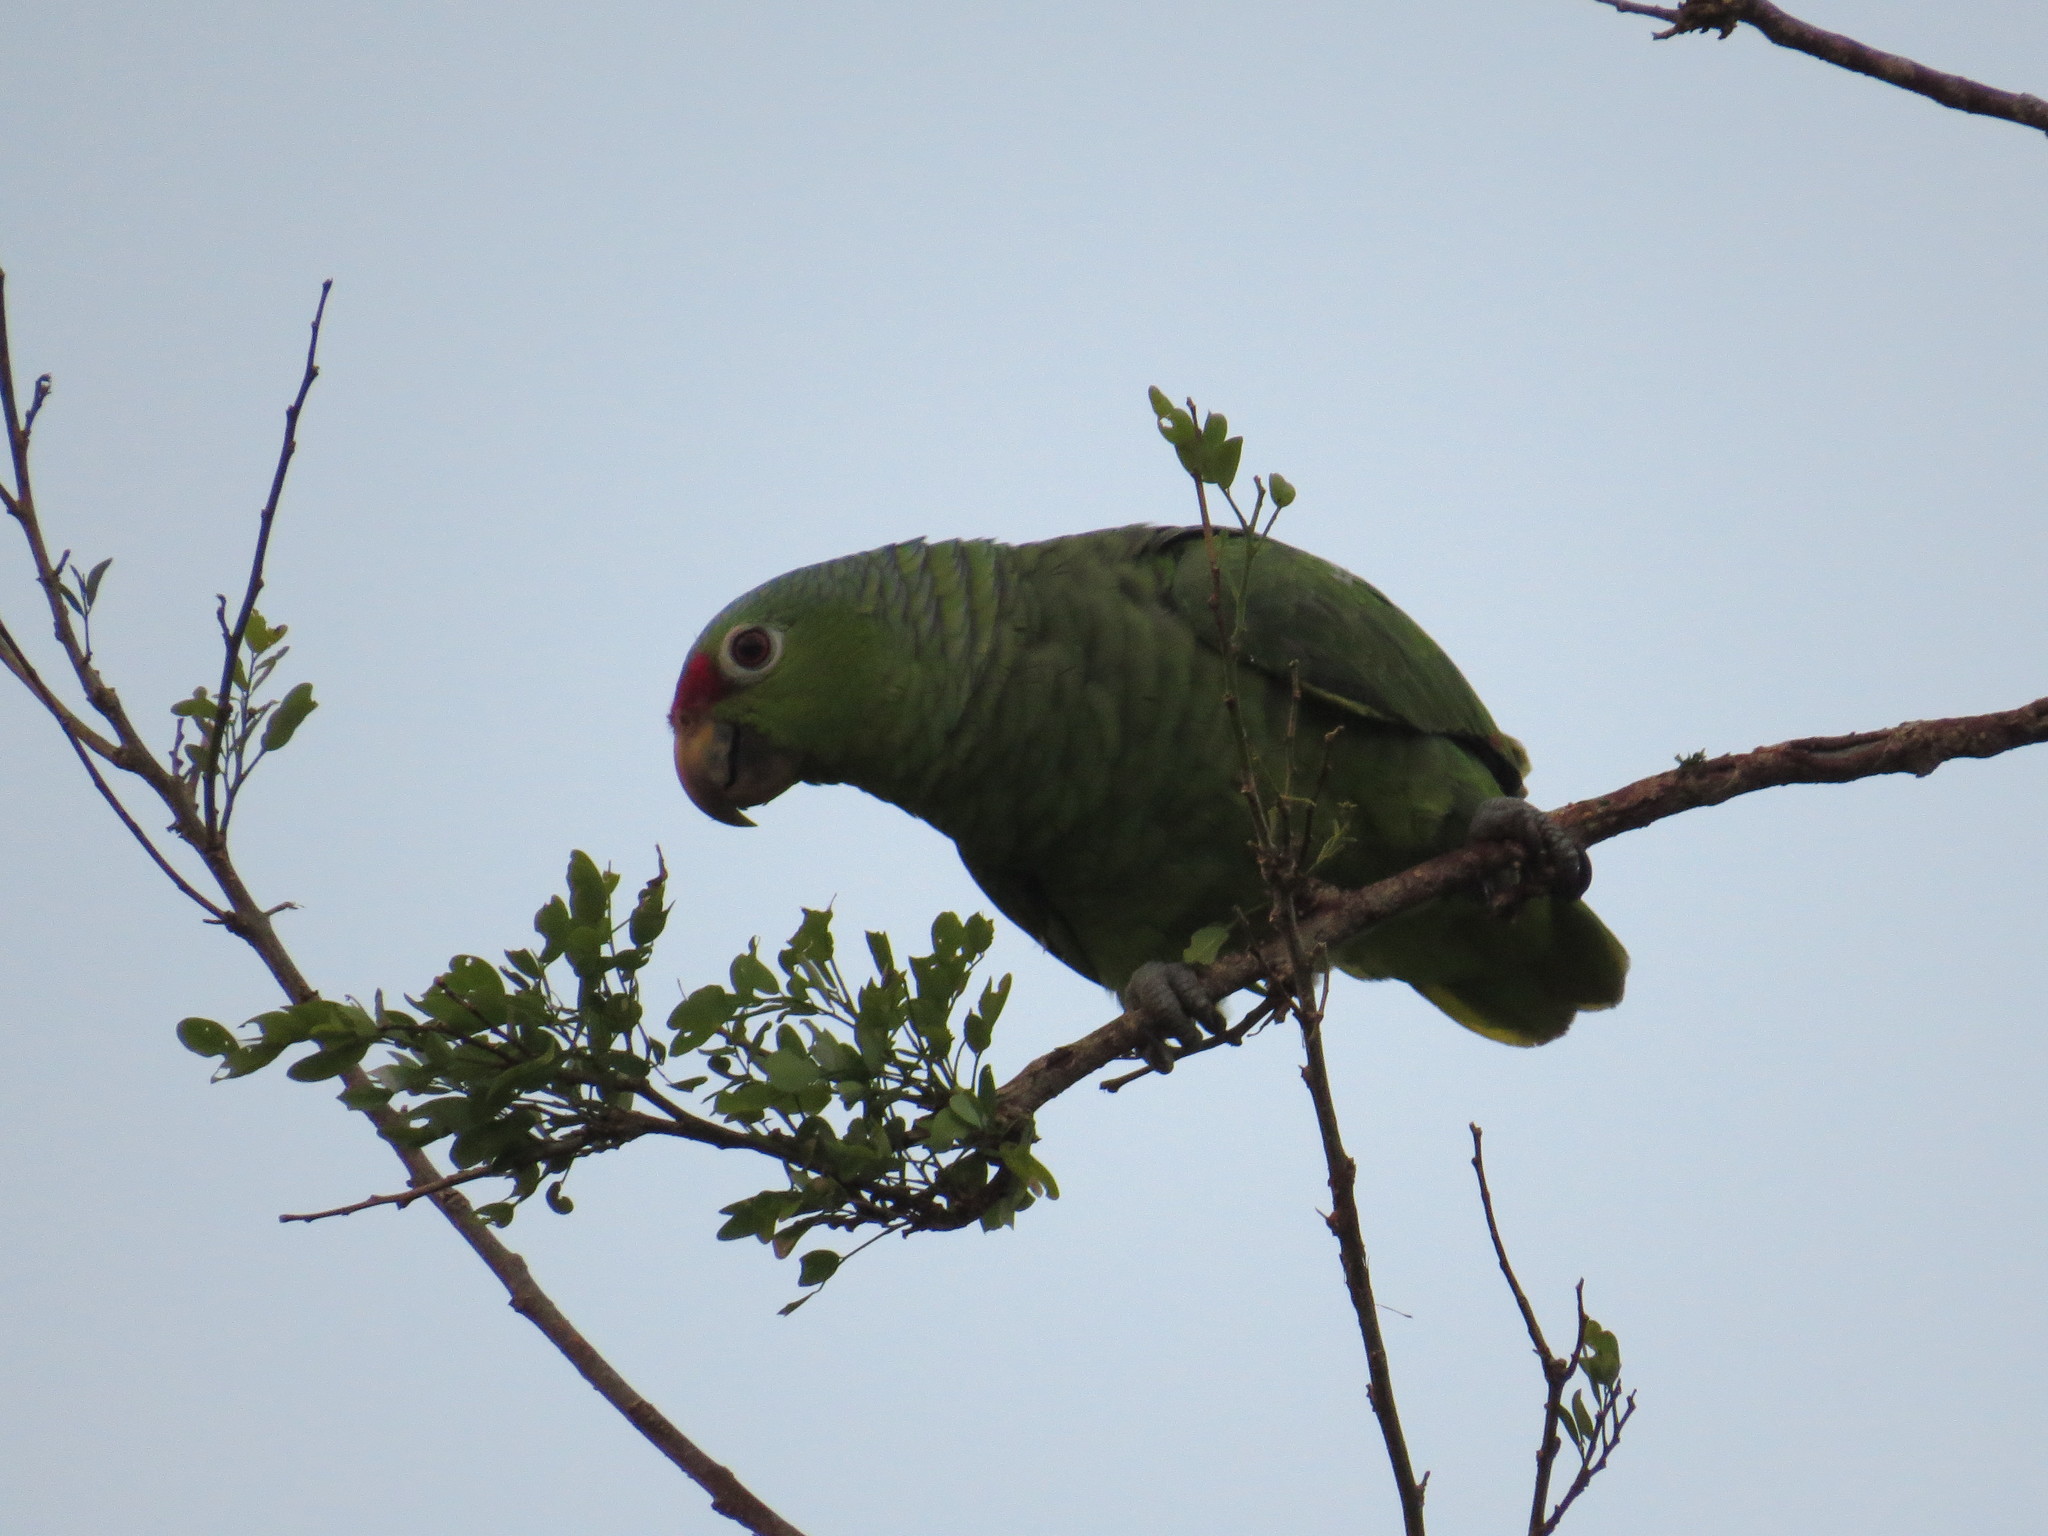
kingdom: Animalia
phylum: Chordata
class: Aves
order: Psittaciformes
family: Psittacidae
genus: Amazona
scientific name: Amazona autumnalis
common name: Red-lored amazon
